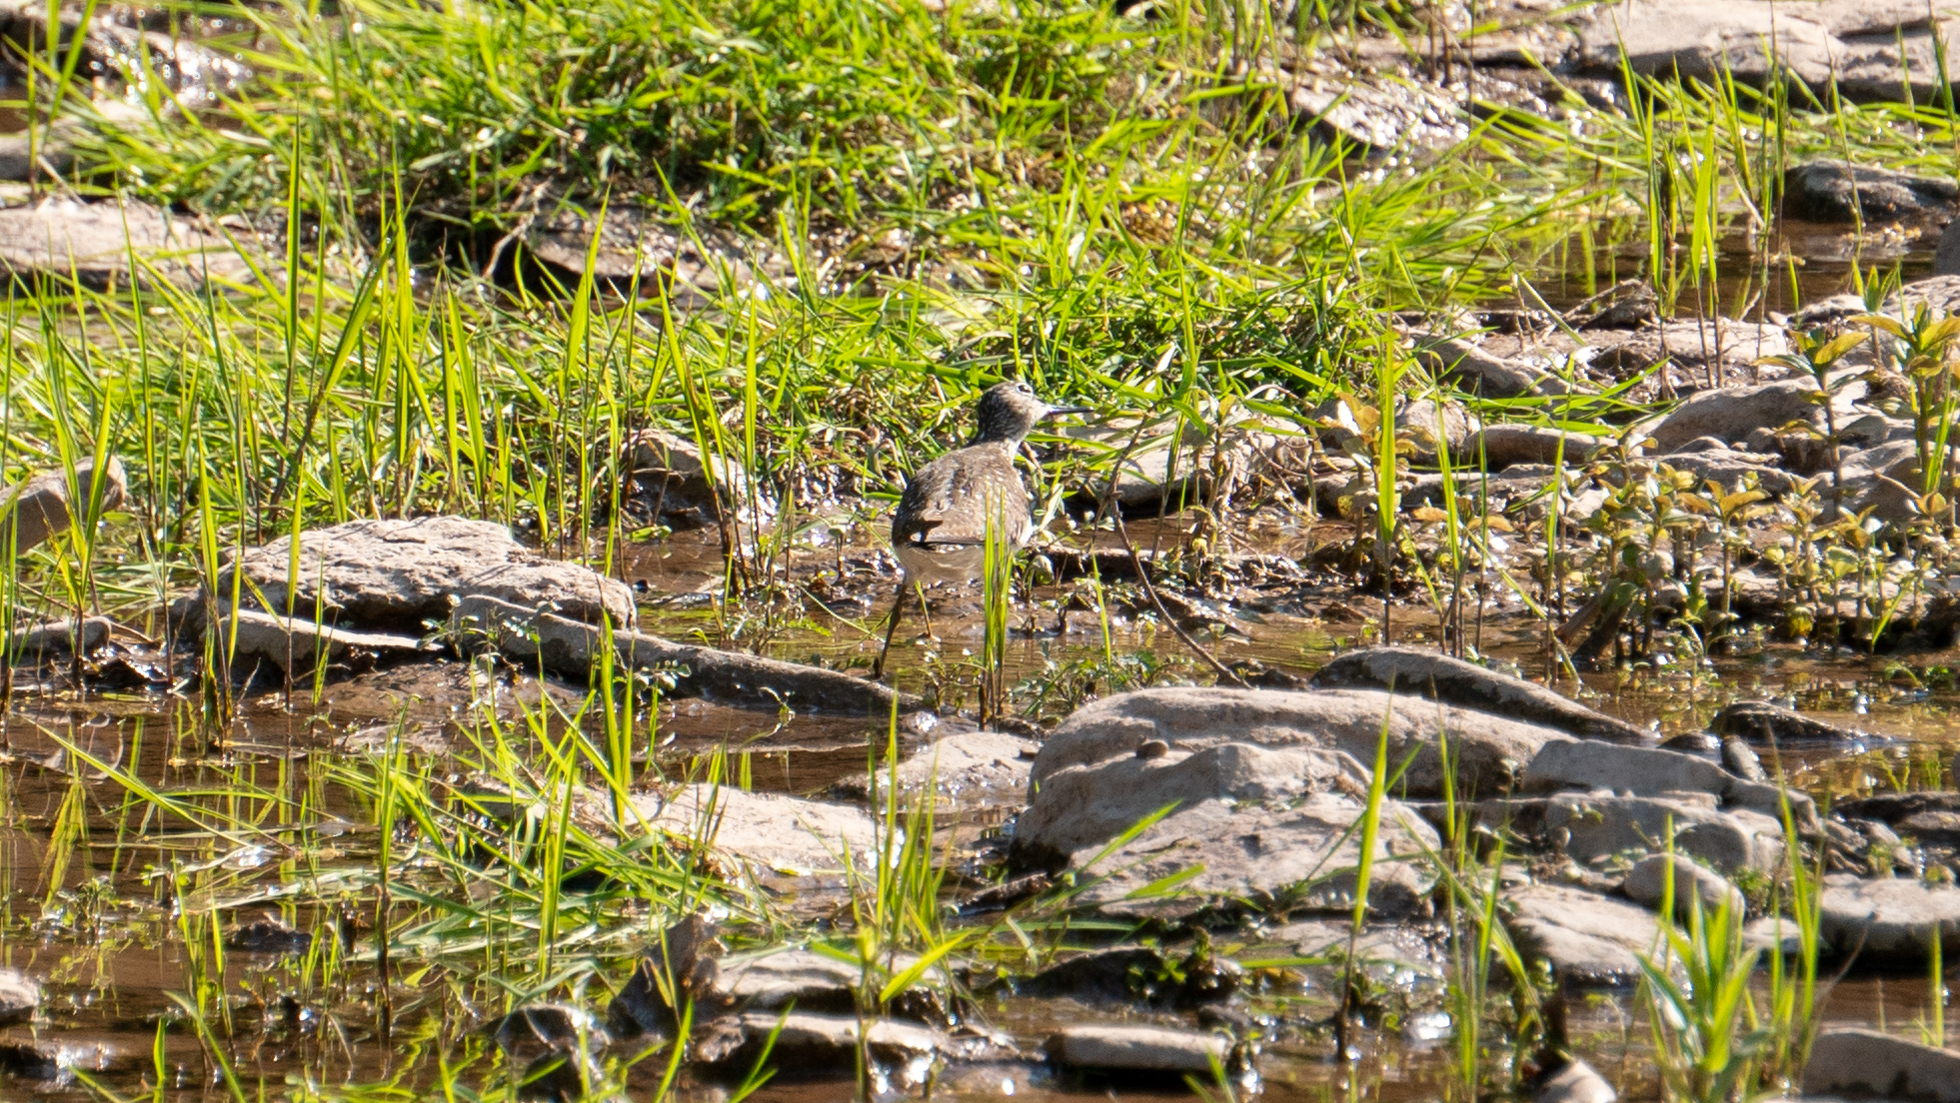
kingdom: Animalia
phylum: Chordata
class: Aves
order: Charadriiformes
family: Scolopacidae
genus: Tringa
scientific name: Tringa solitaria
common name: Solitary sandpiper
